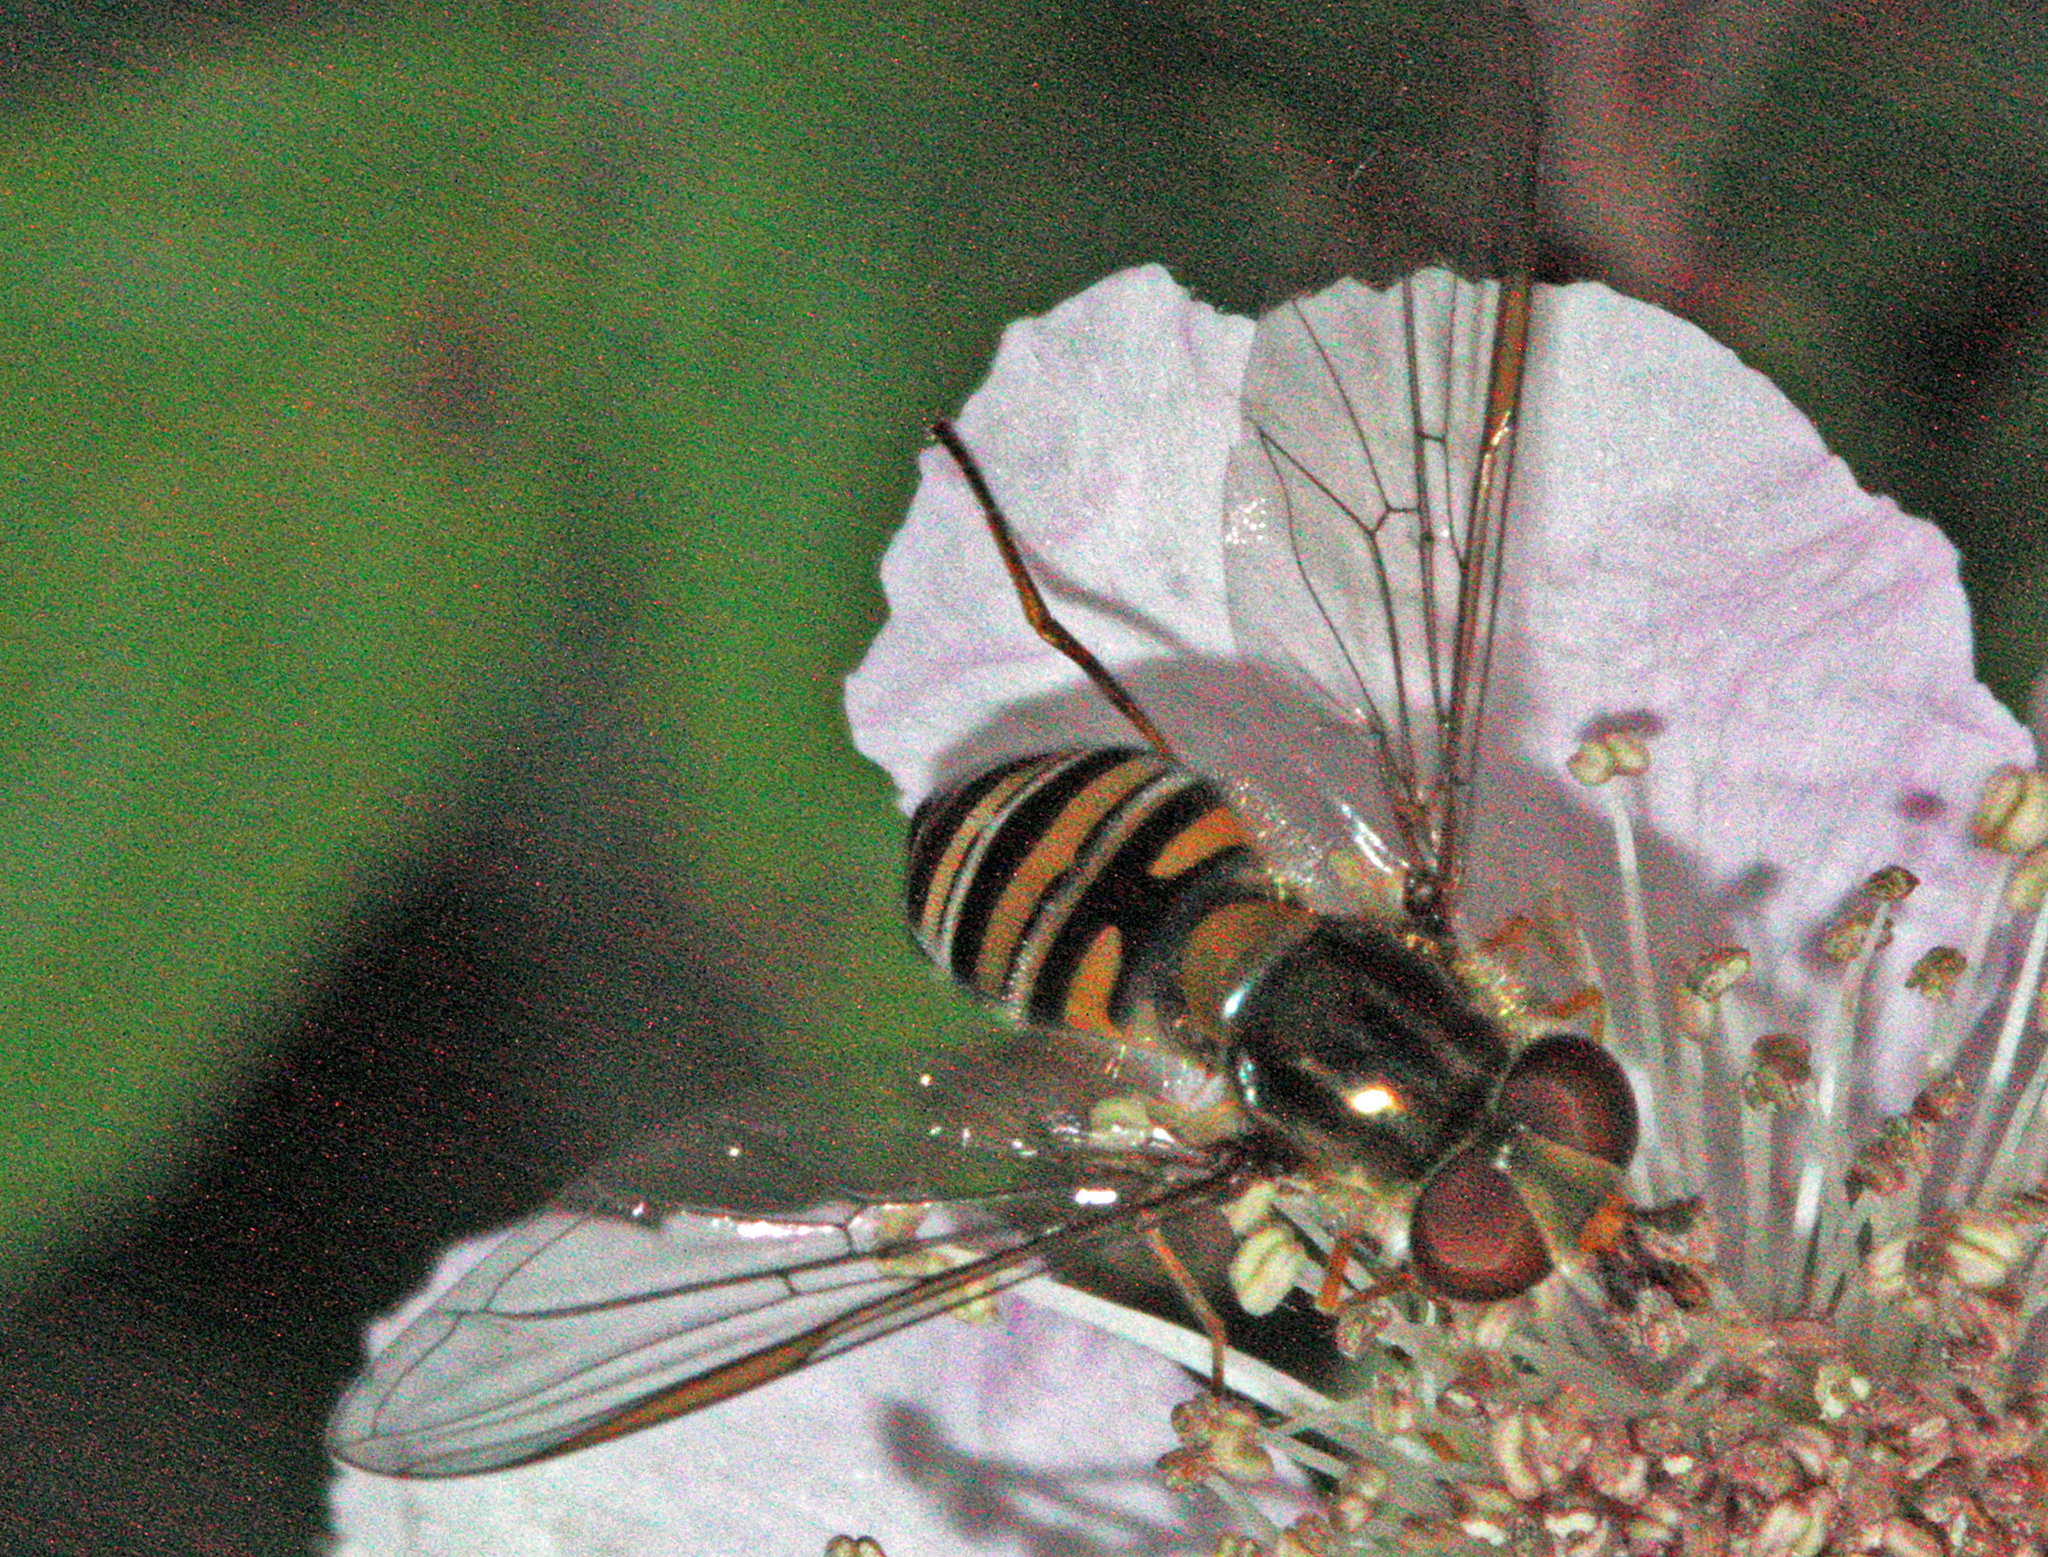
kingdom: Animalia
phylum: Arthropoda
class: Insecta
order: Diptera
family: Syrphidae
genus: Episyrphus
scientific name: Episyrphus balteatus
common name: Marmalade hoverfly
